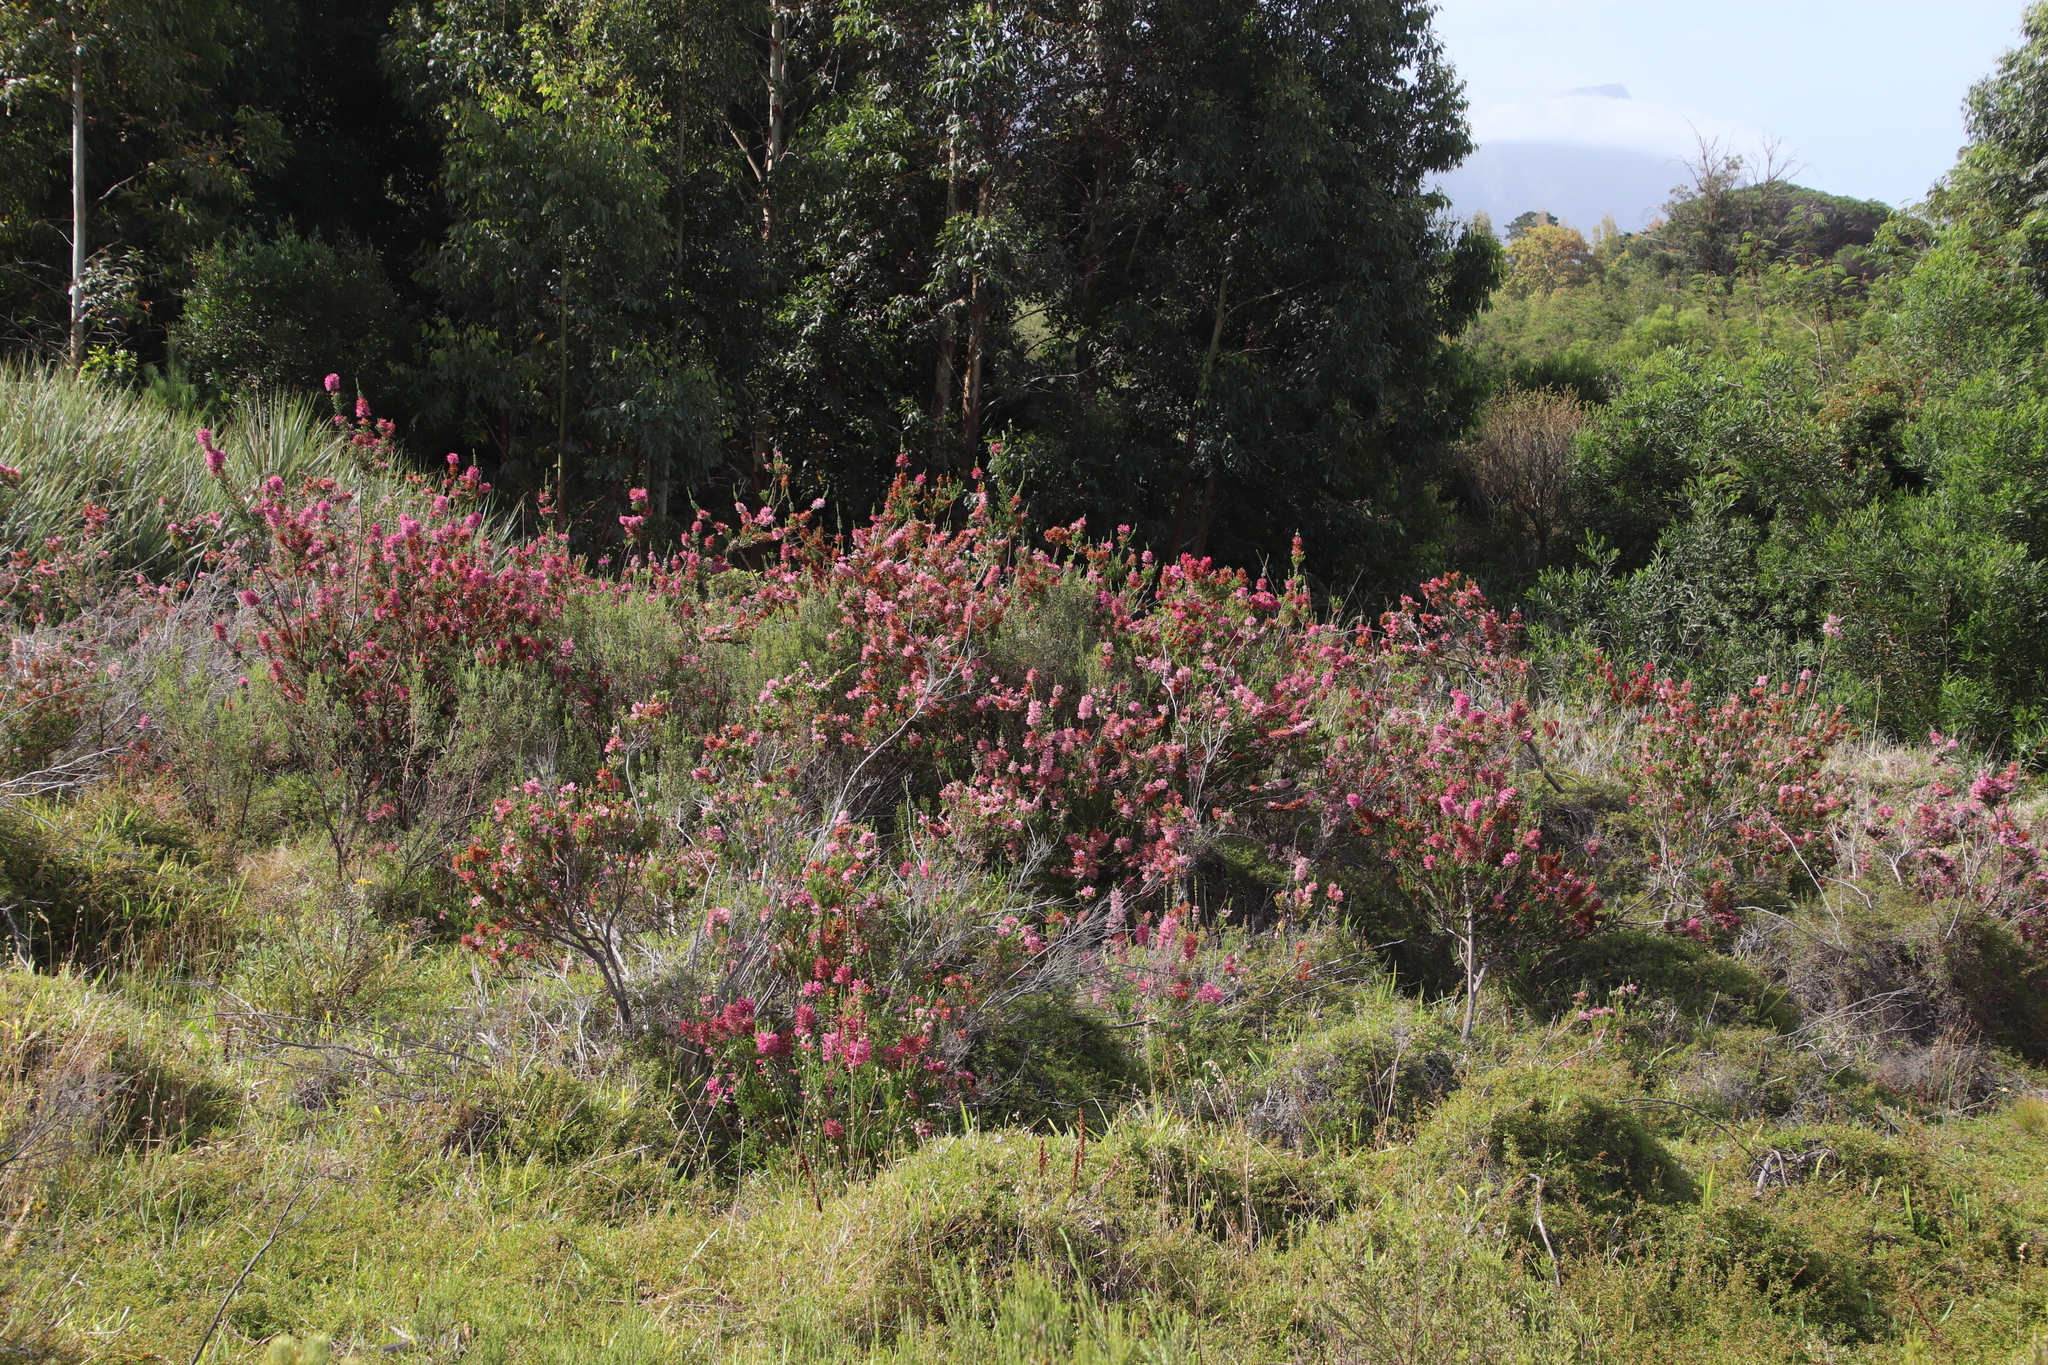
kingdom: Plantae
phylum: Tracheophyta
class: Magnoliopsida
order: Ericales
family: Ericaceae
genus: Erica
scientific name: Erica verticillata
